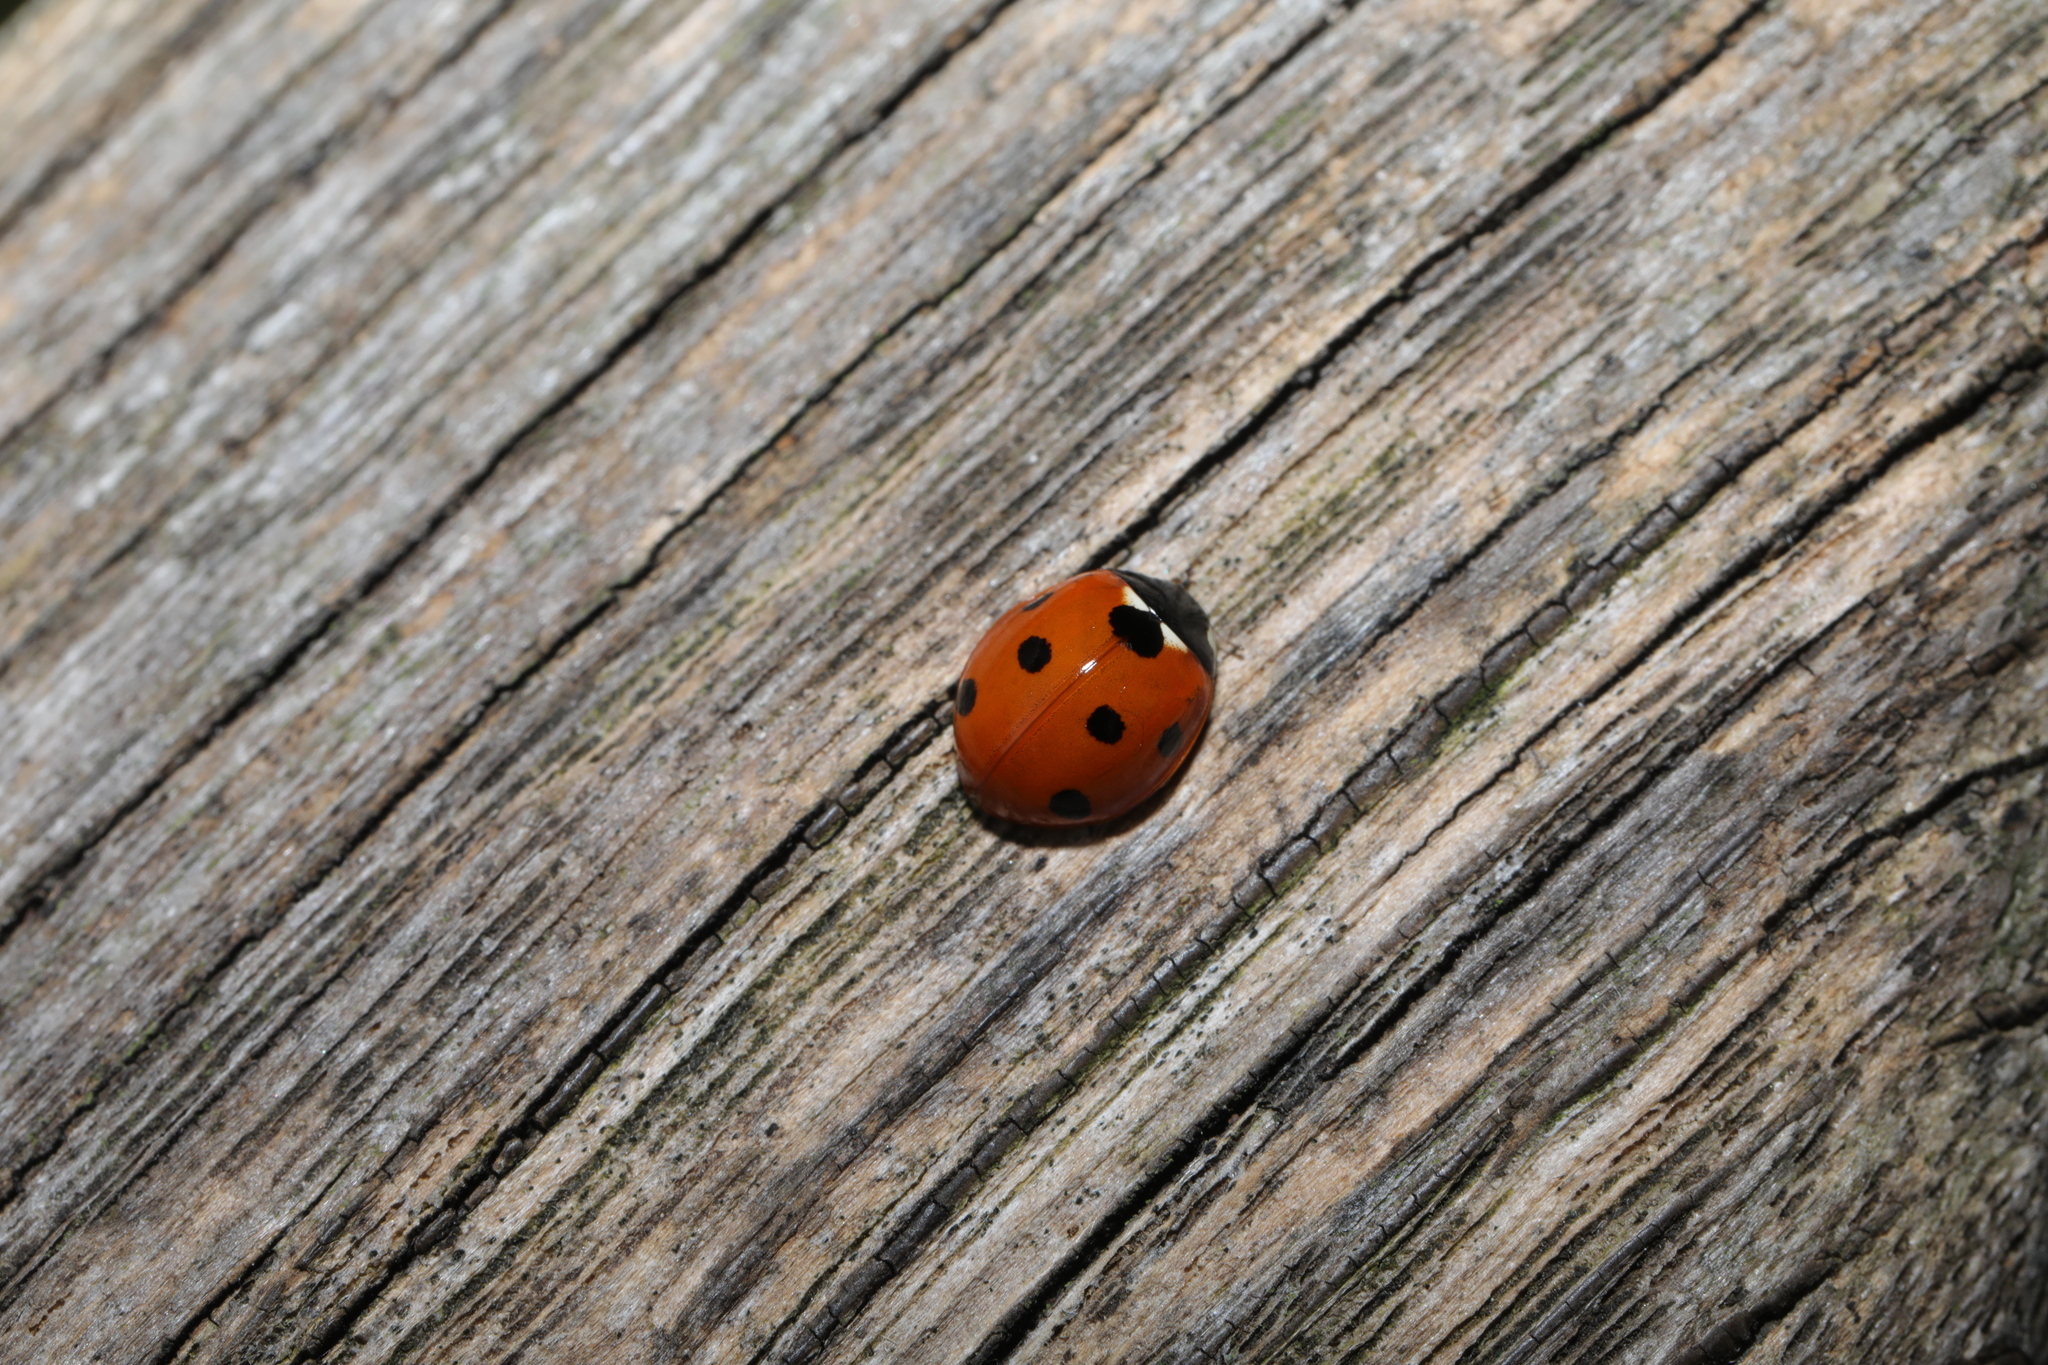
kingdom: Animalia
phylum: Arthropoda
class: Insecta
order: Coleoptera
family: Coccinellidae
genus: Coccinella
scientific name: Coccinella septempunctata
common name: Sevenspotted lady beetle
